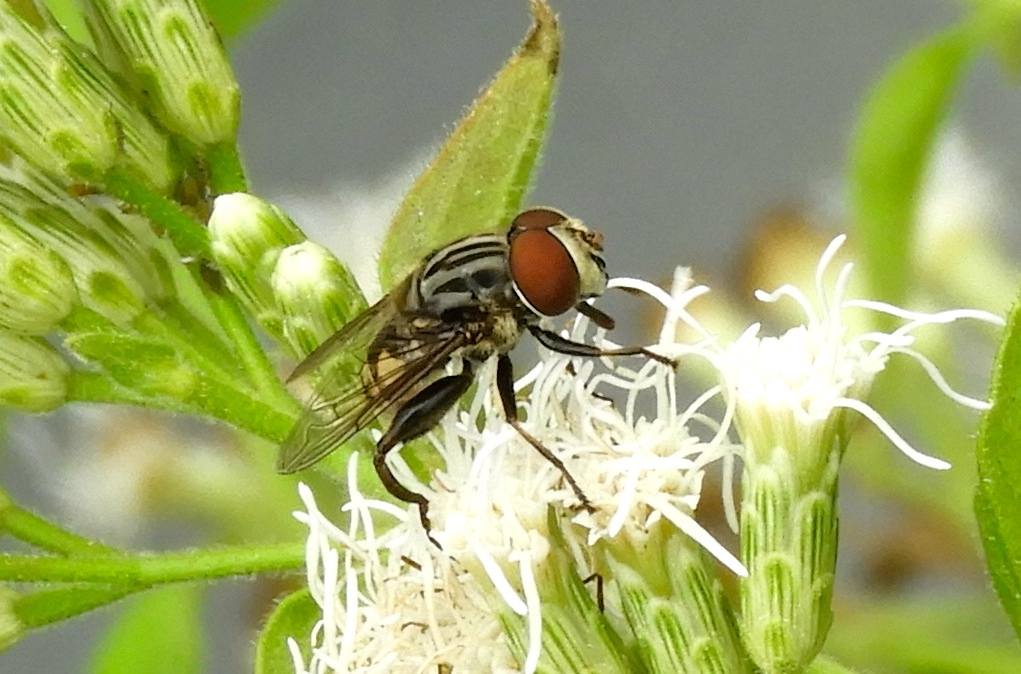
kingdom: Animalia
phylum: Arthropoda
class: Insecta
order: Diptera
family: Syrphidae
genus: Palpada
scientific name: Palpada furcata
